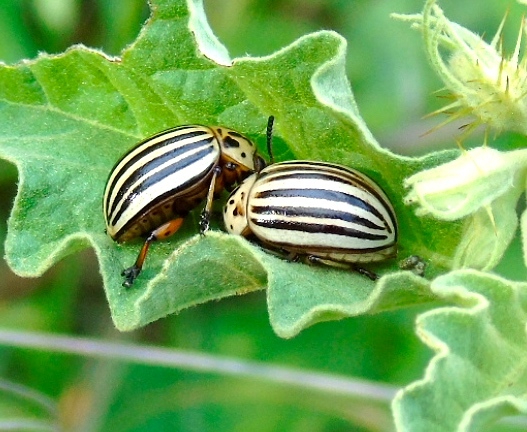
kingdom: Animalia
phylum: Arthropoda
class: Insecta
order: Coleoptera
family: Chrysomelidae
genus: Leptinotarsa
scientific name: Leptinotarsa decemlineata
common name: Colorado potato beetle
